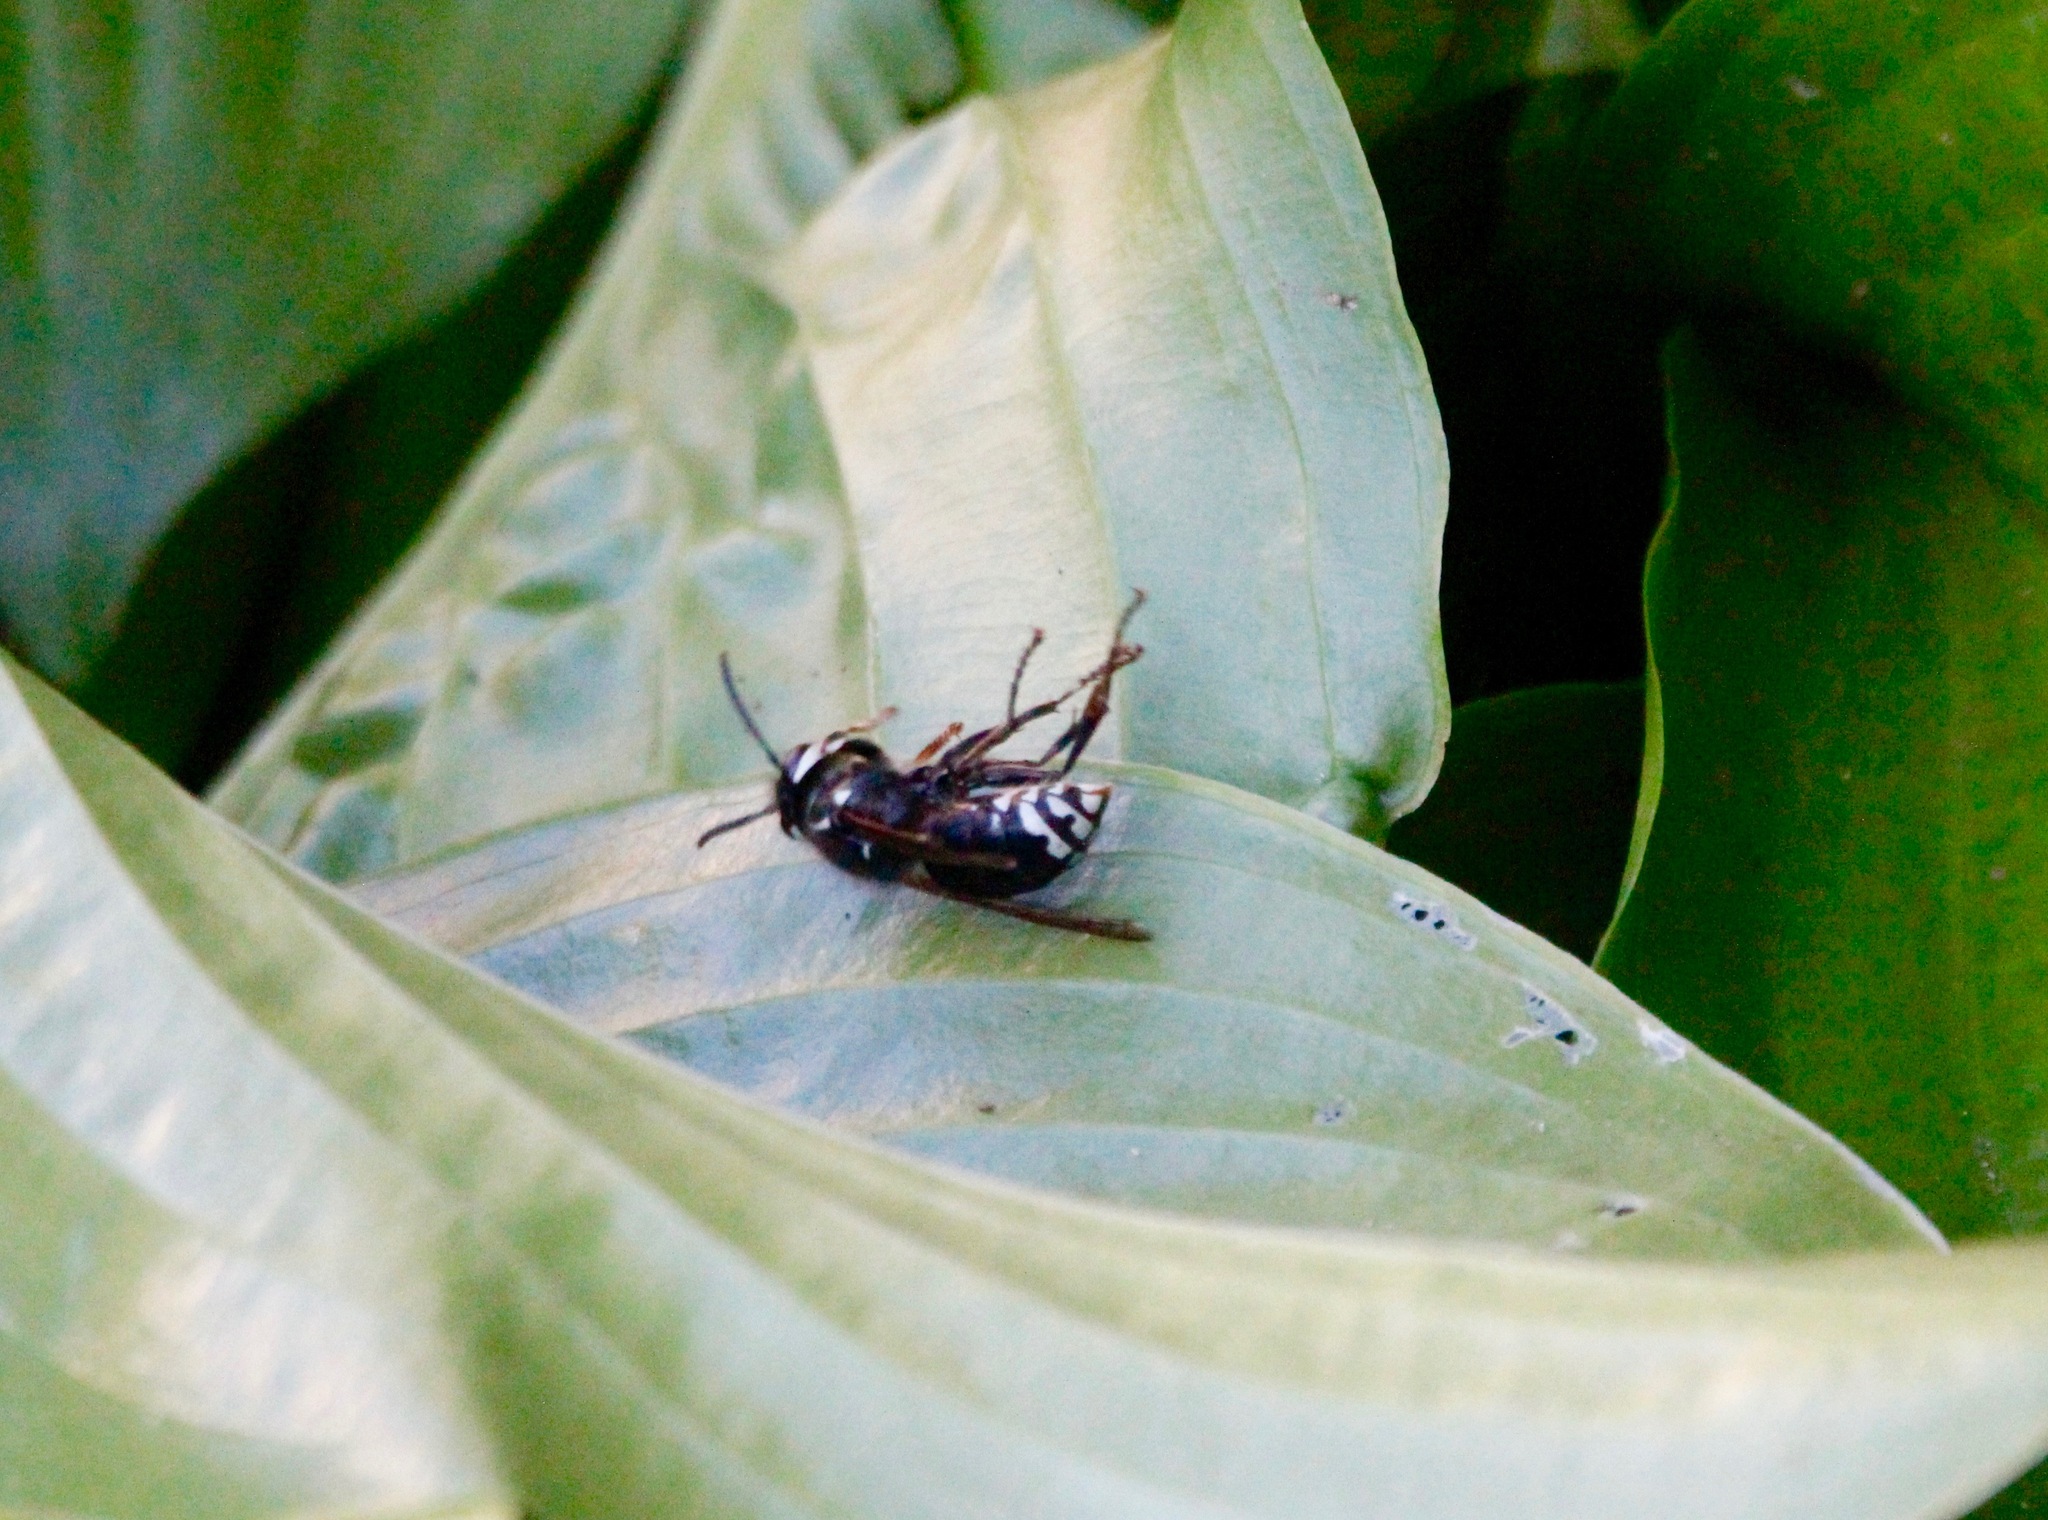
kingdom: Animalia
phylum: Arthropoda
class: Insecta
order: Hymenoptera
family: Vespidae
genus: Dolichovespula
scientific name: Dolichovespula maculata
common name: Bald-faced hornet
